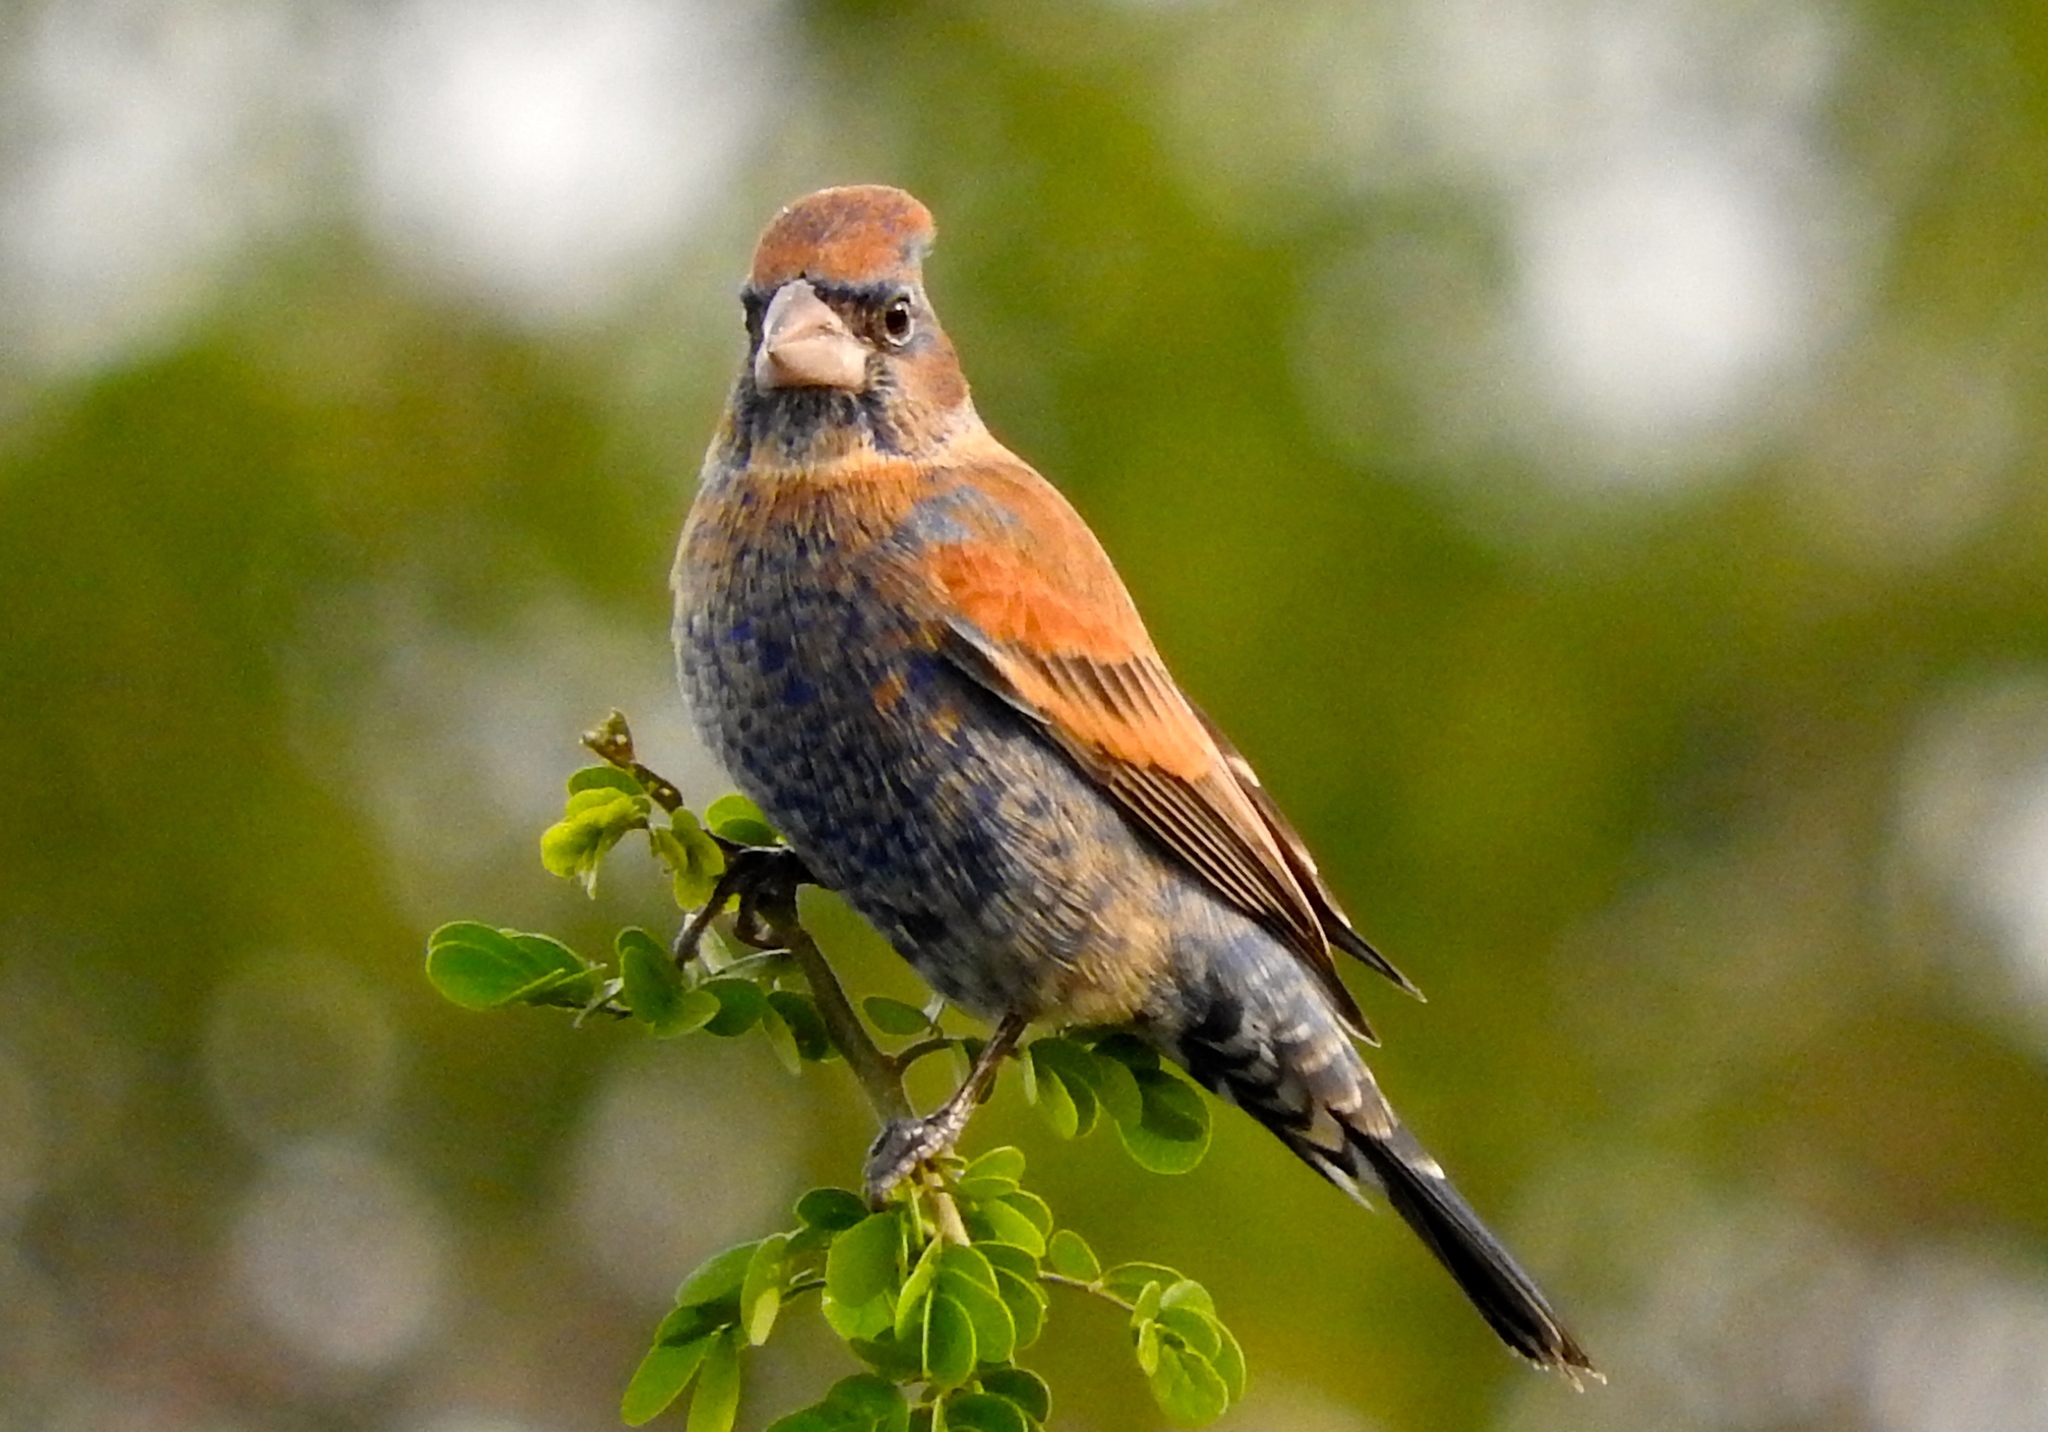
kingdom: Animalia
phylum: Chordata
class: Aves
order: Passeriformes
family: Cardinalidae
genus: Passerina
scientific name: Passerina caerulea
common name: Blue grosbeak
